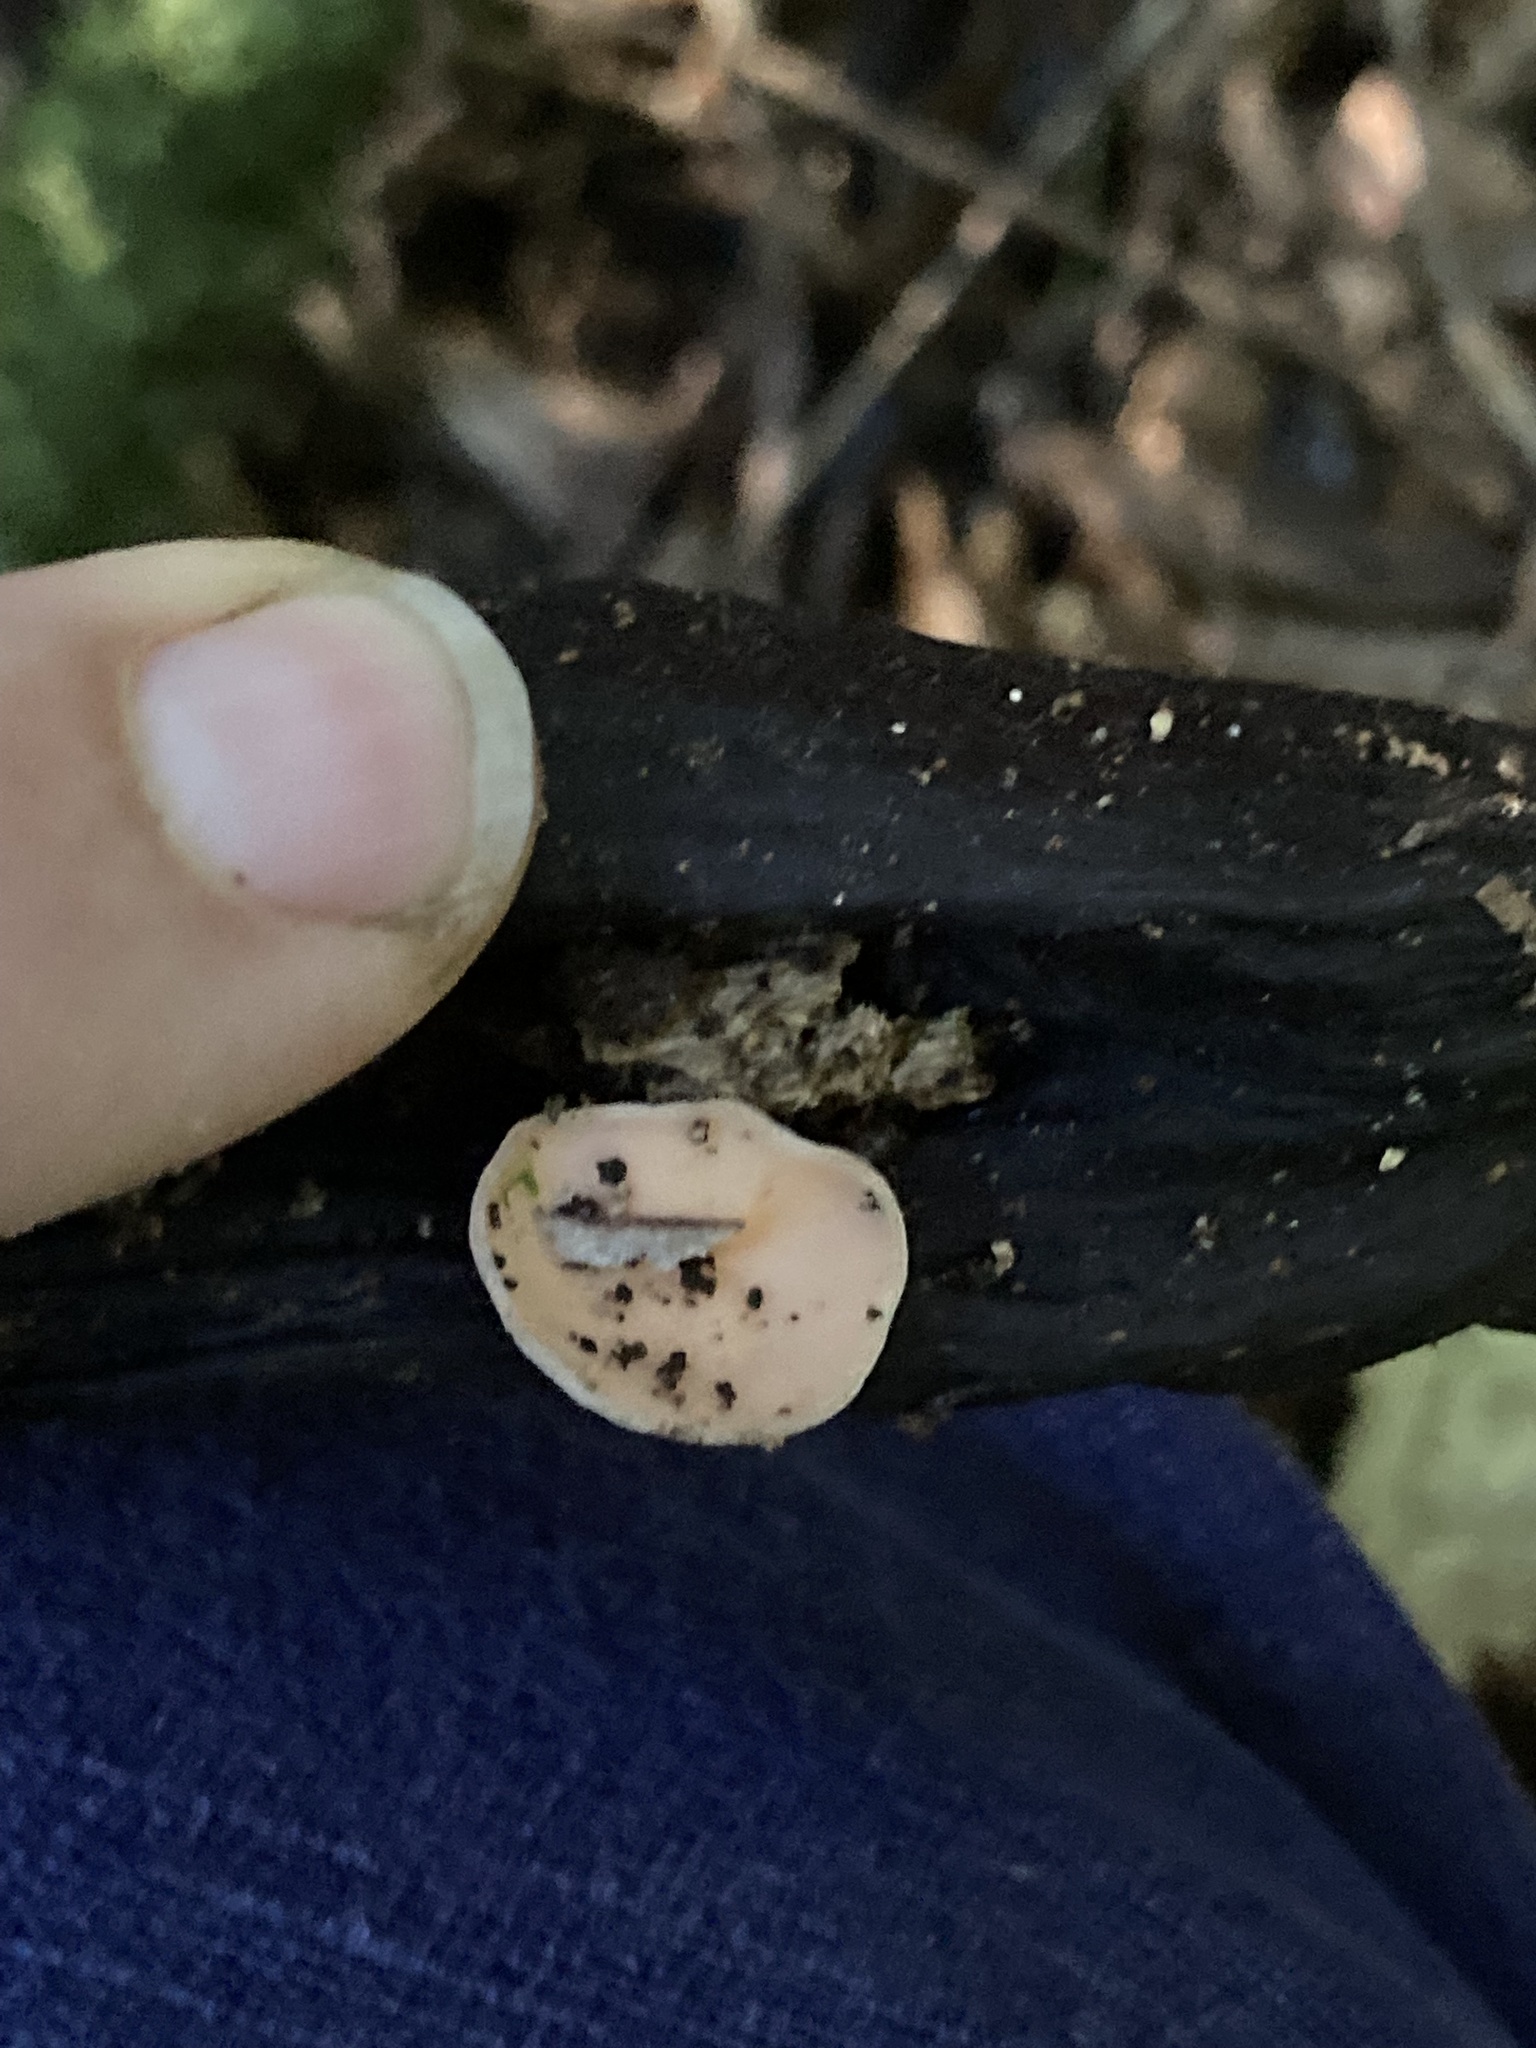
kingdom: Fungi
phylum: Ascomycota
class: Pezizomycetes
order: Pezizales
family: Sarcoscyphaceae
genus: Cookeina
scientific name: Cookeina colensoi
